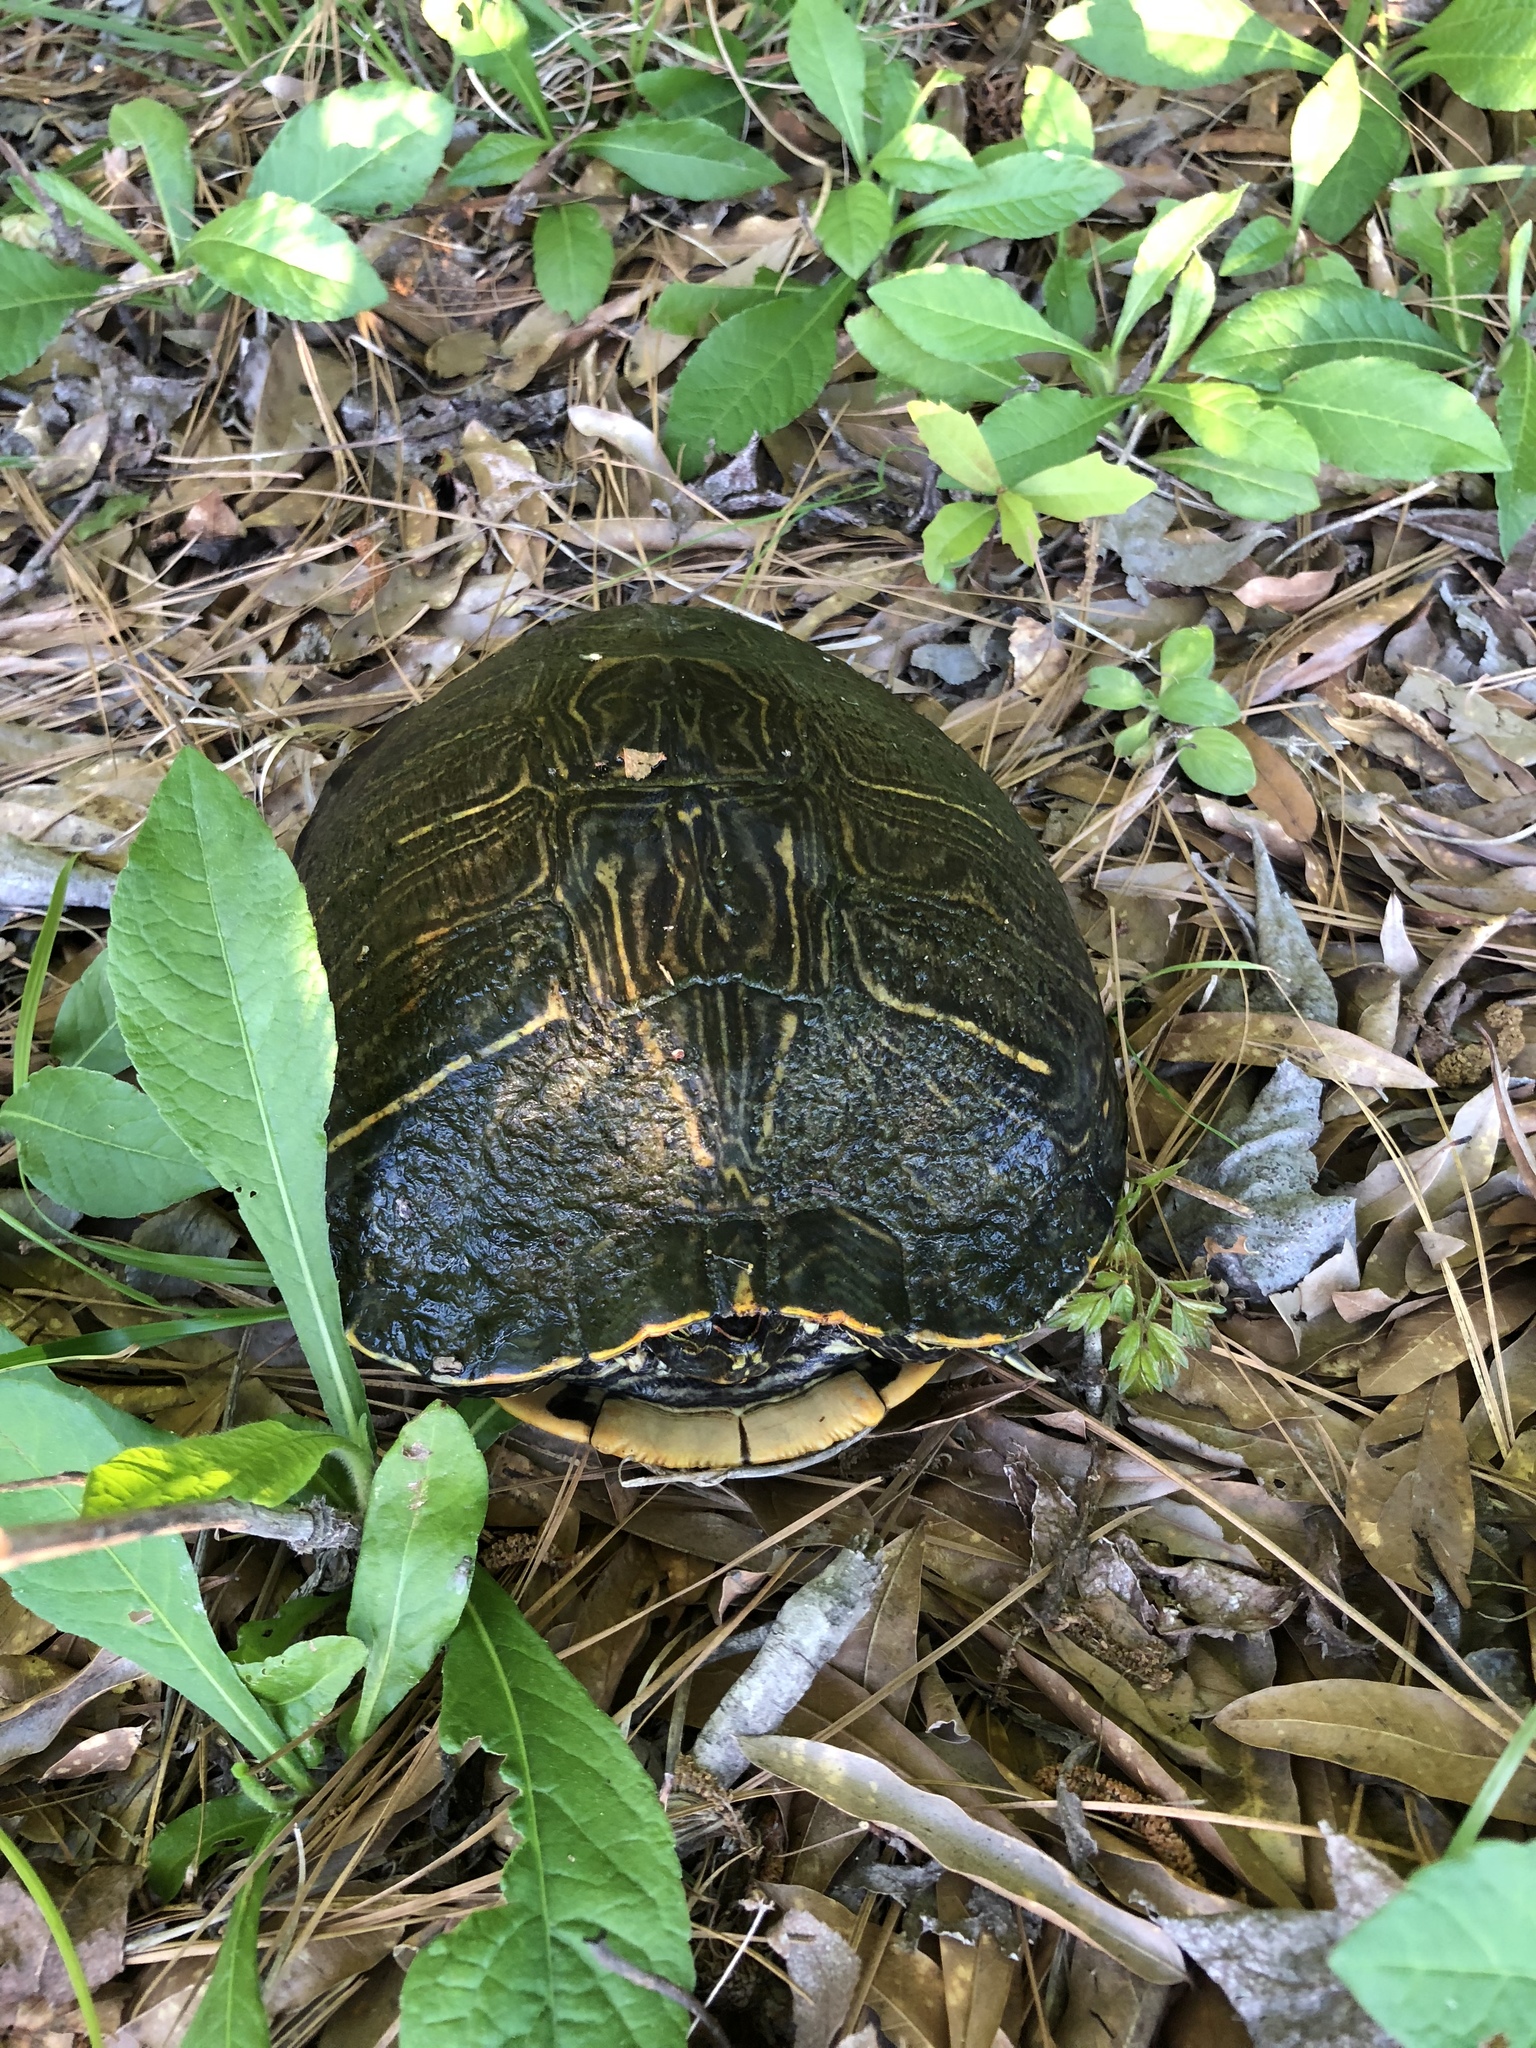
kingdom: Animalia
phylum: Chordata
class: Testudines
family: Emydidae
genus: Trachemys
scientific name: Trachemys scripta
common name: Slider
